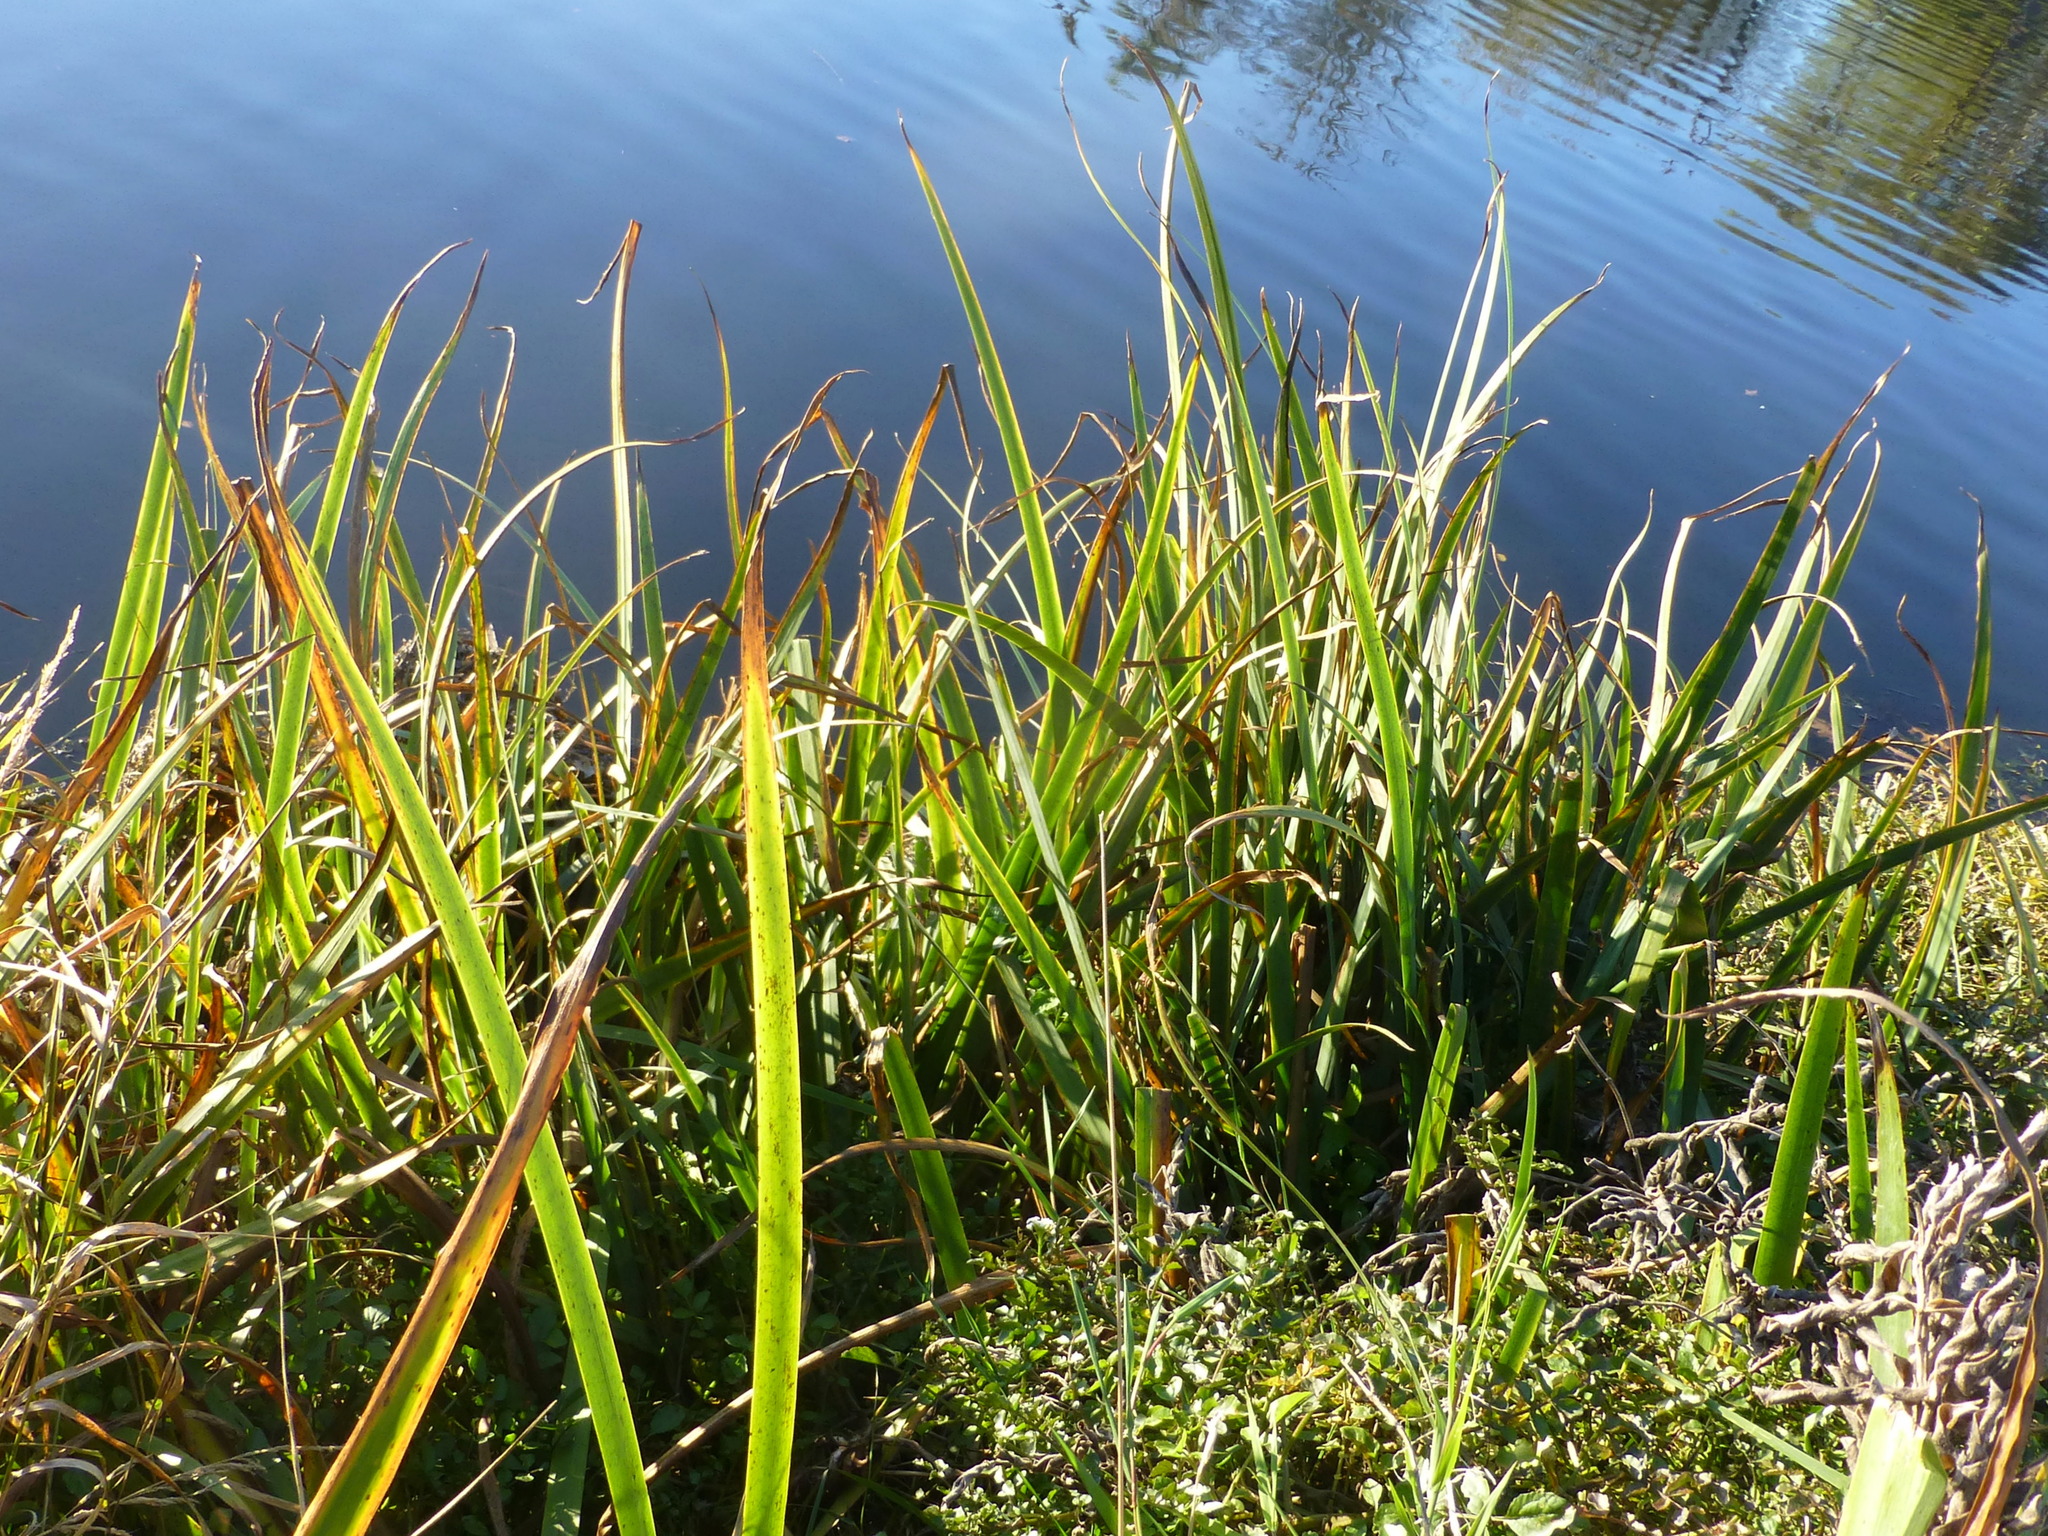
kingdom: Plantae
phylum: Tracheophyta
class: Liliopsida
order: Asparagales
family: Iridaceae
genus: Iris
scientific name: Iris pseudacorus
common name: Yellow flag
